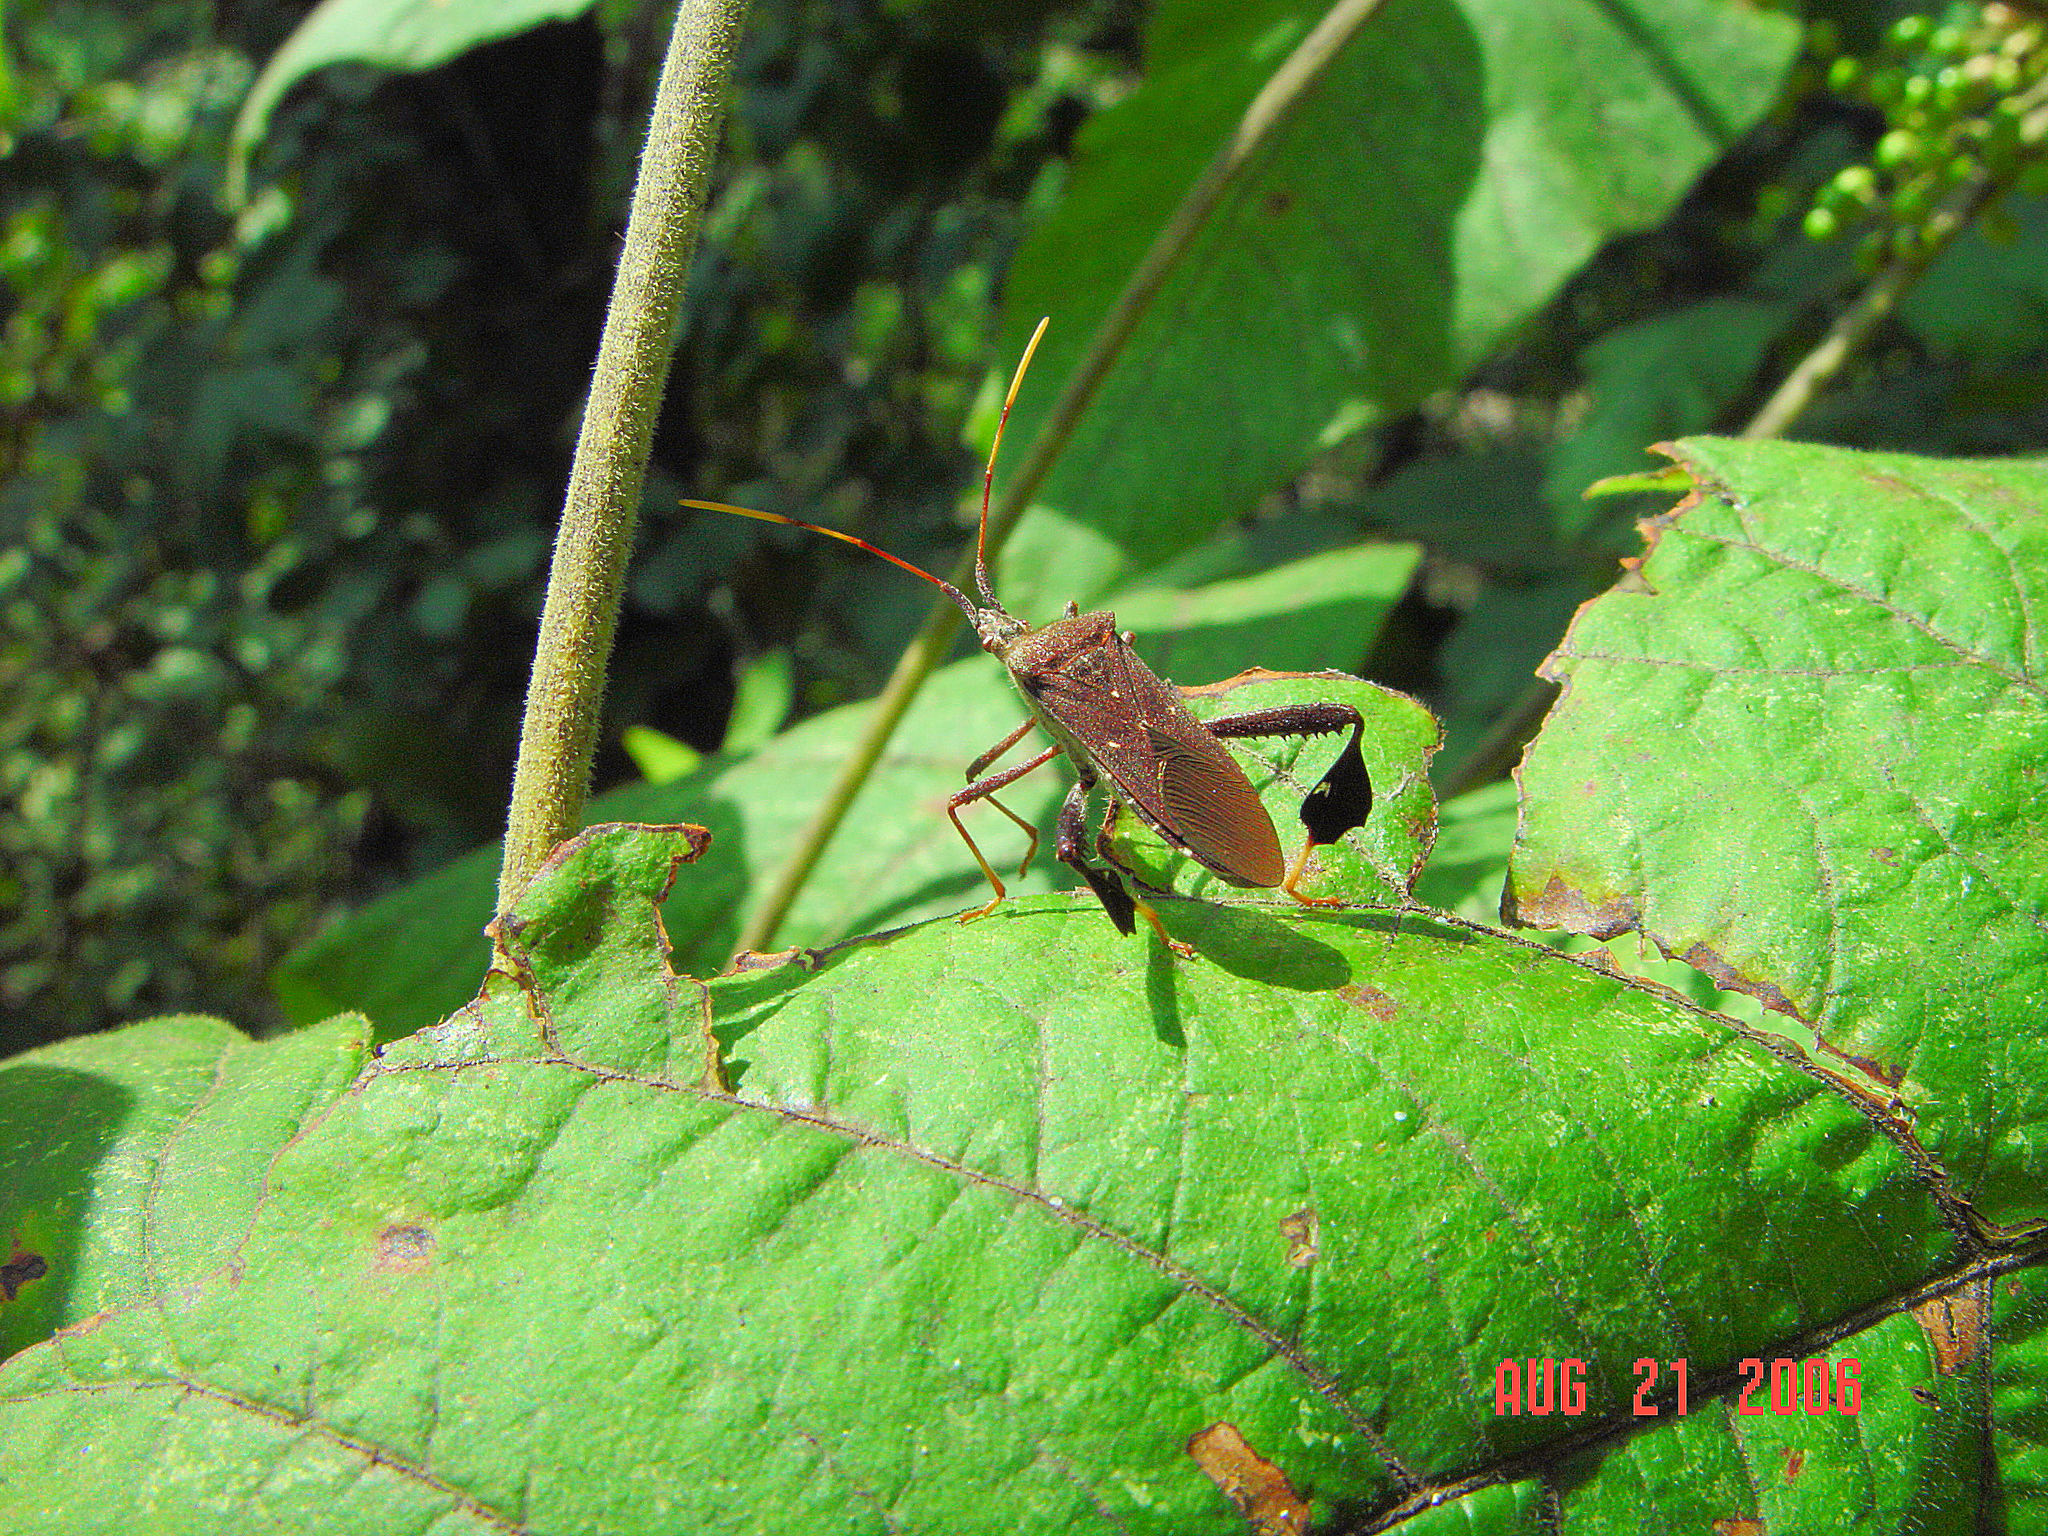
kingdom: Animalia
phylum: Arthropoda
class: Insecta
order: Hemiptera
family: Coreidae
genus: Leptoglossus
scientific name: Leptoglossus oppositus
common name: Northern leaf-footed bug
